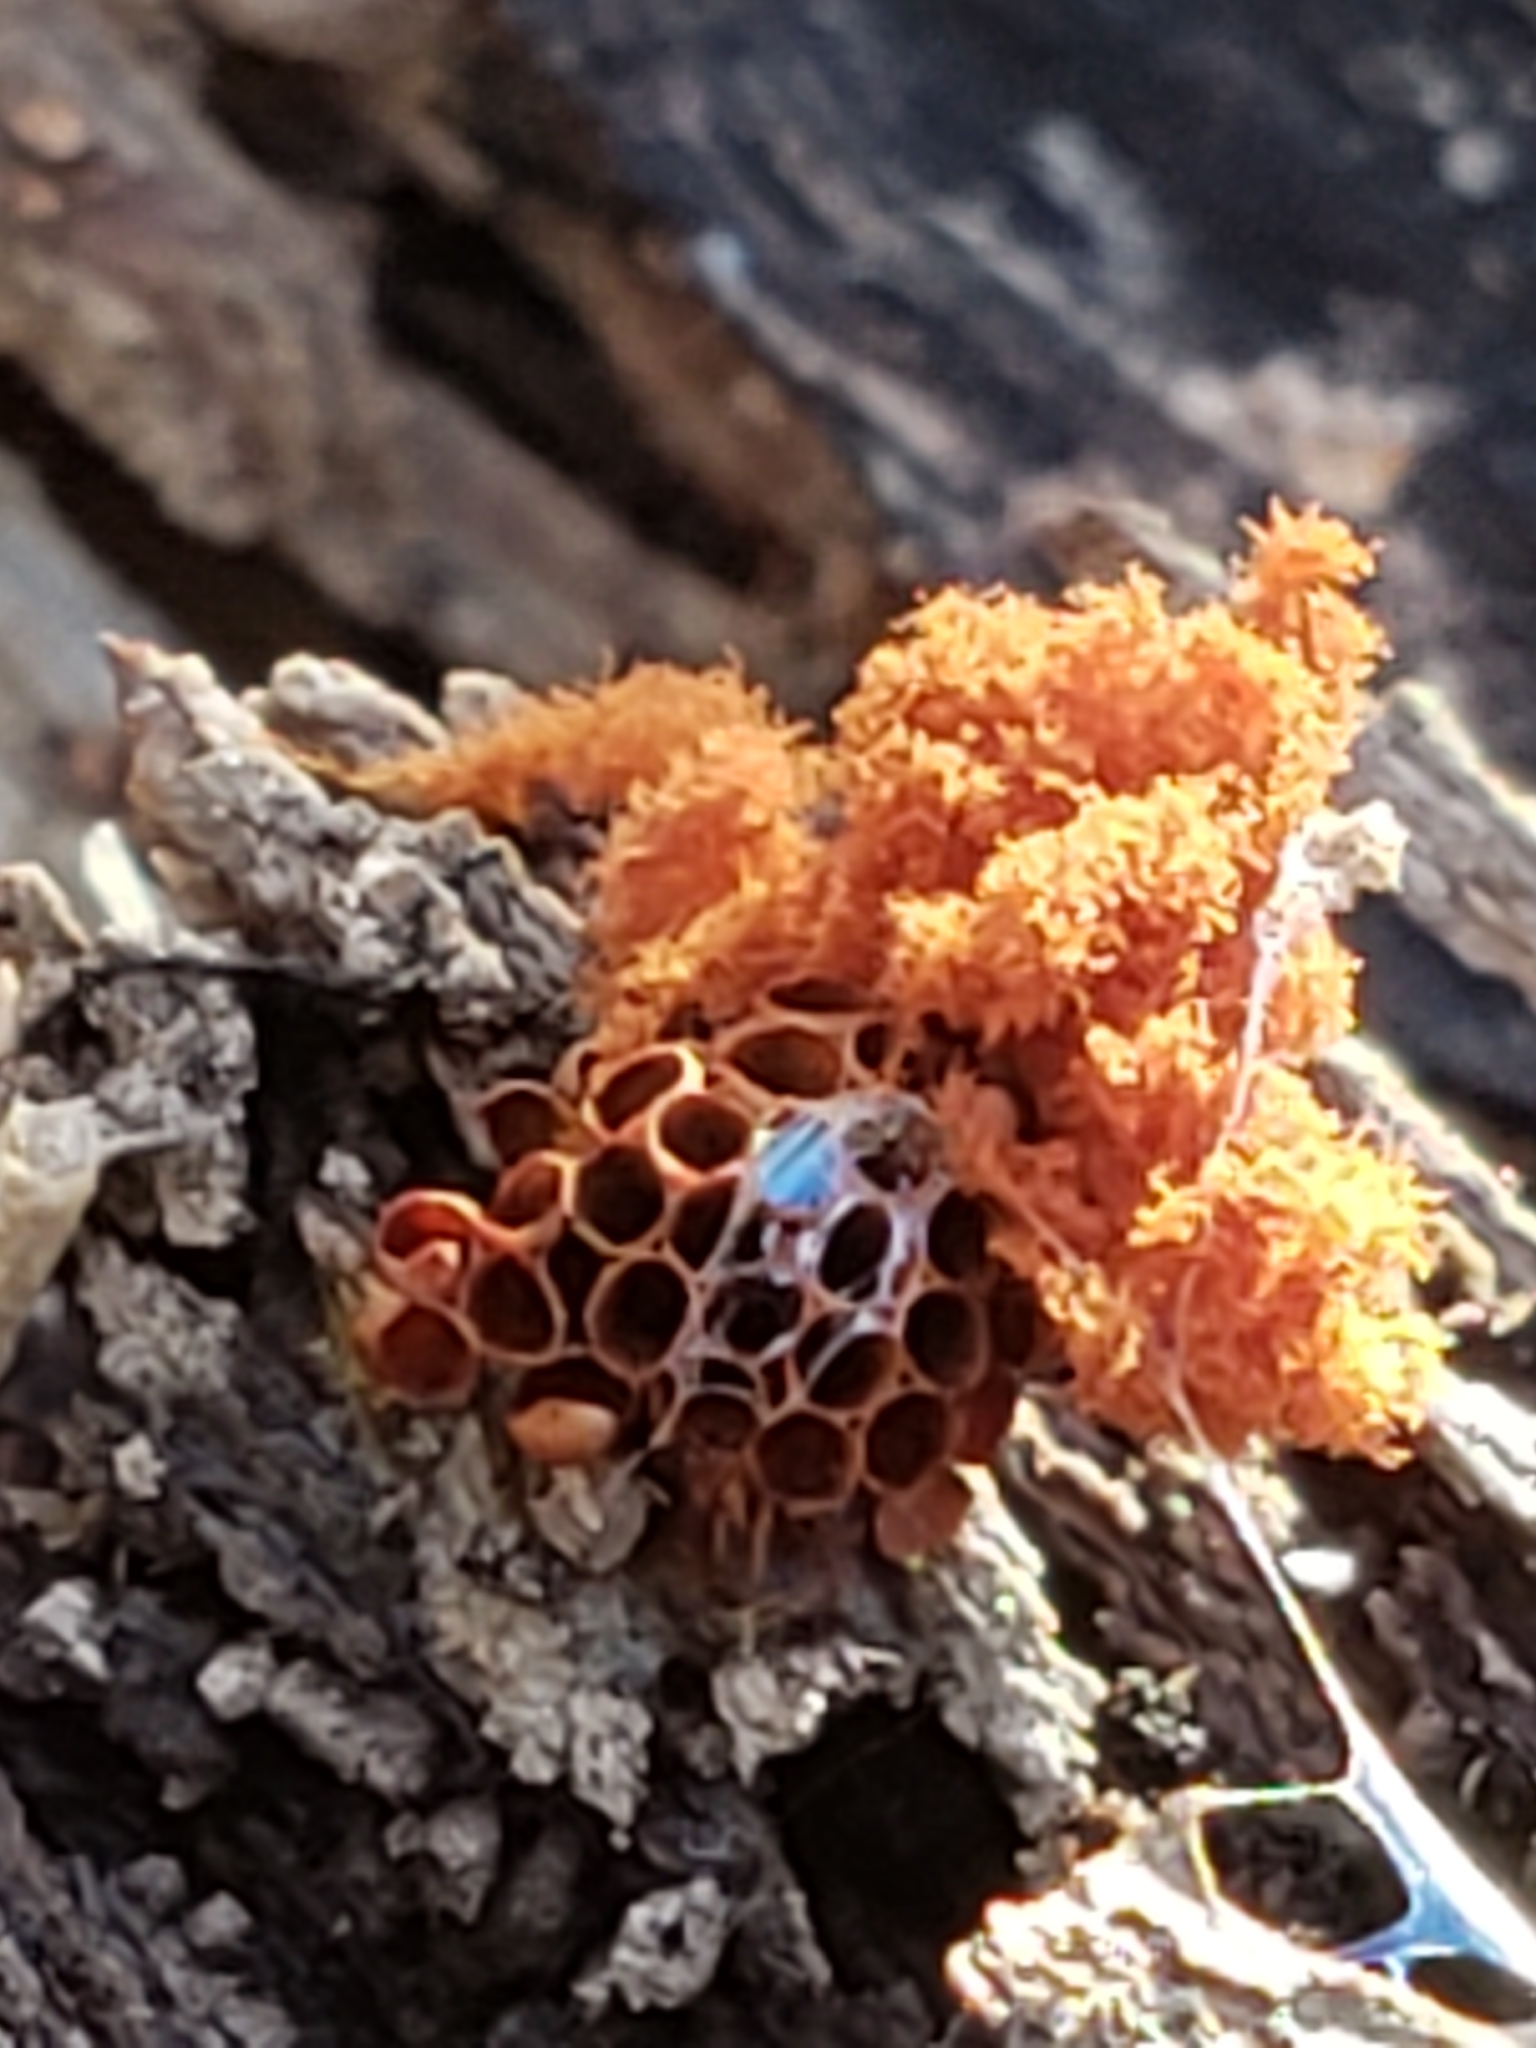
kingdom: Protozoa
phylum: Mycetozoa
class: Myxomycetes
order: Trichiales
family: Trichiaceae
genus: Metatrichia
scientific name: Metatrichia vesparia
